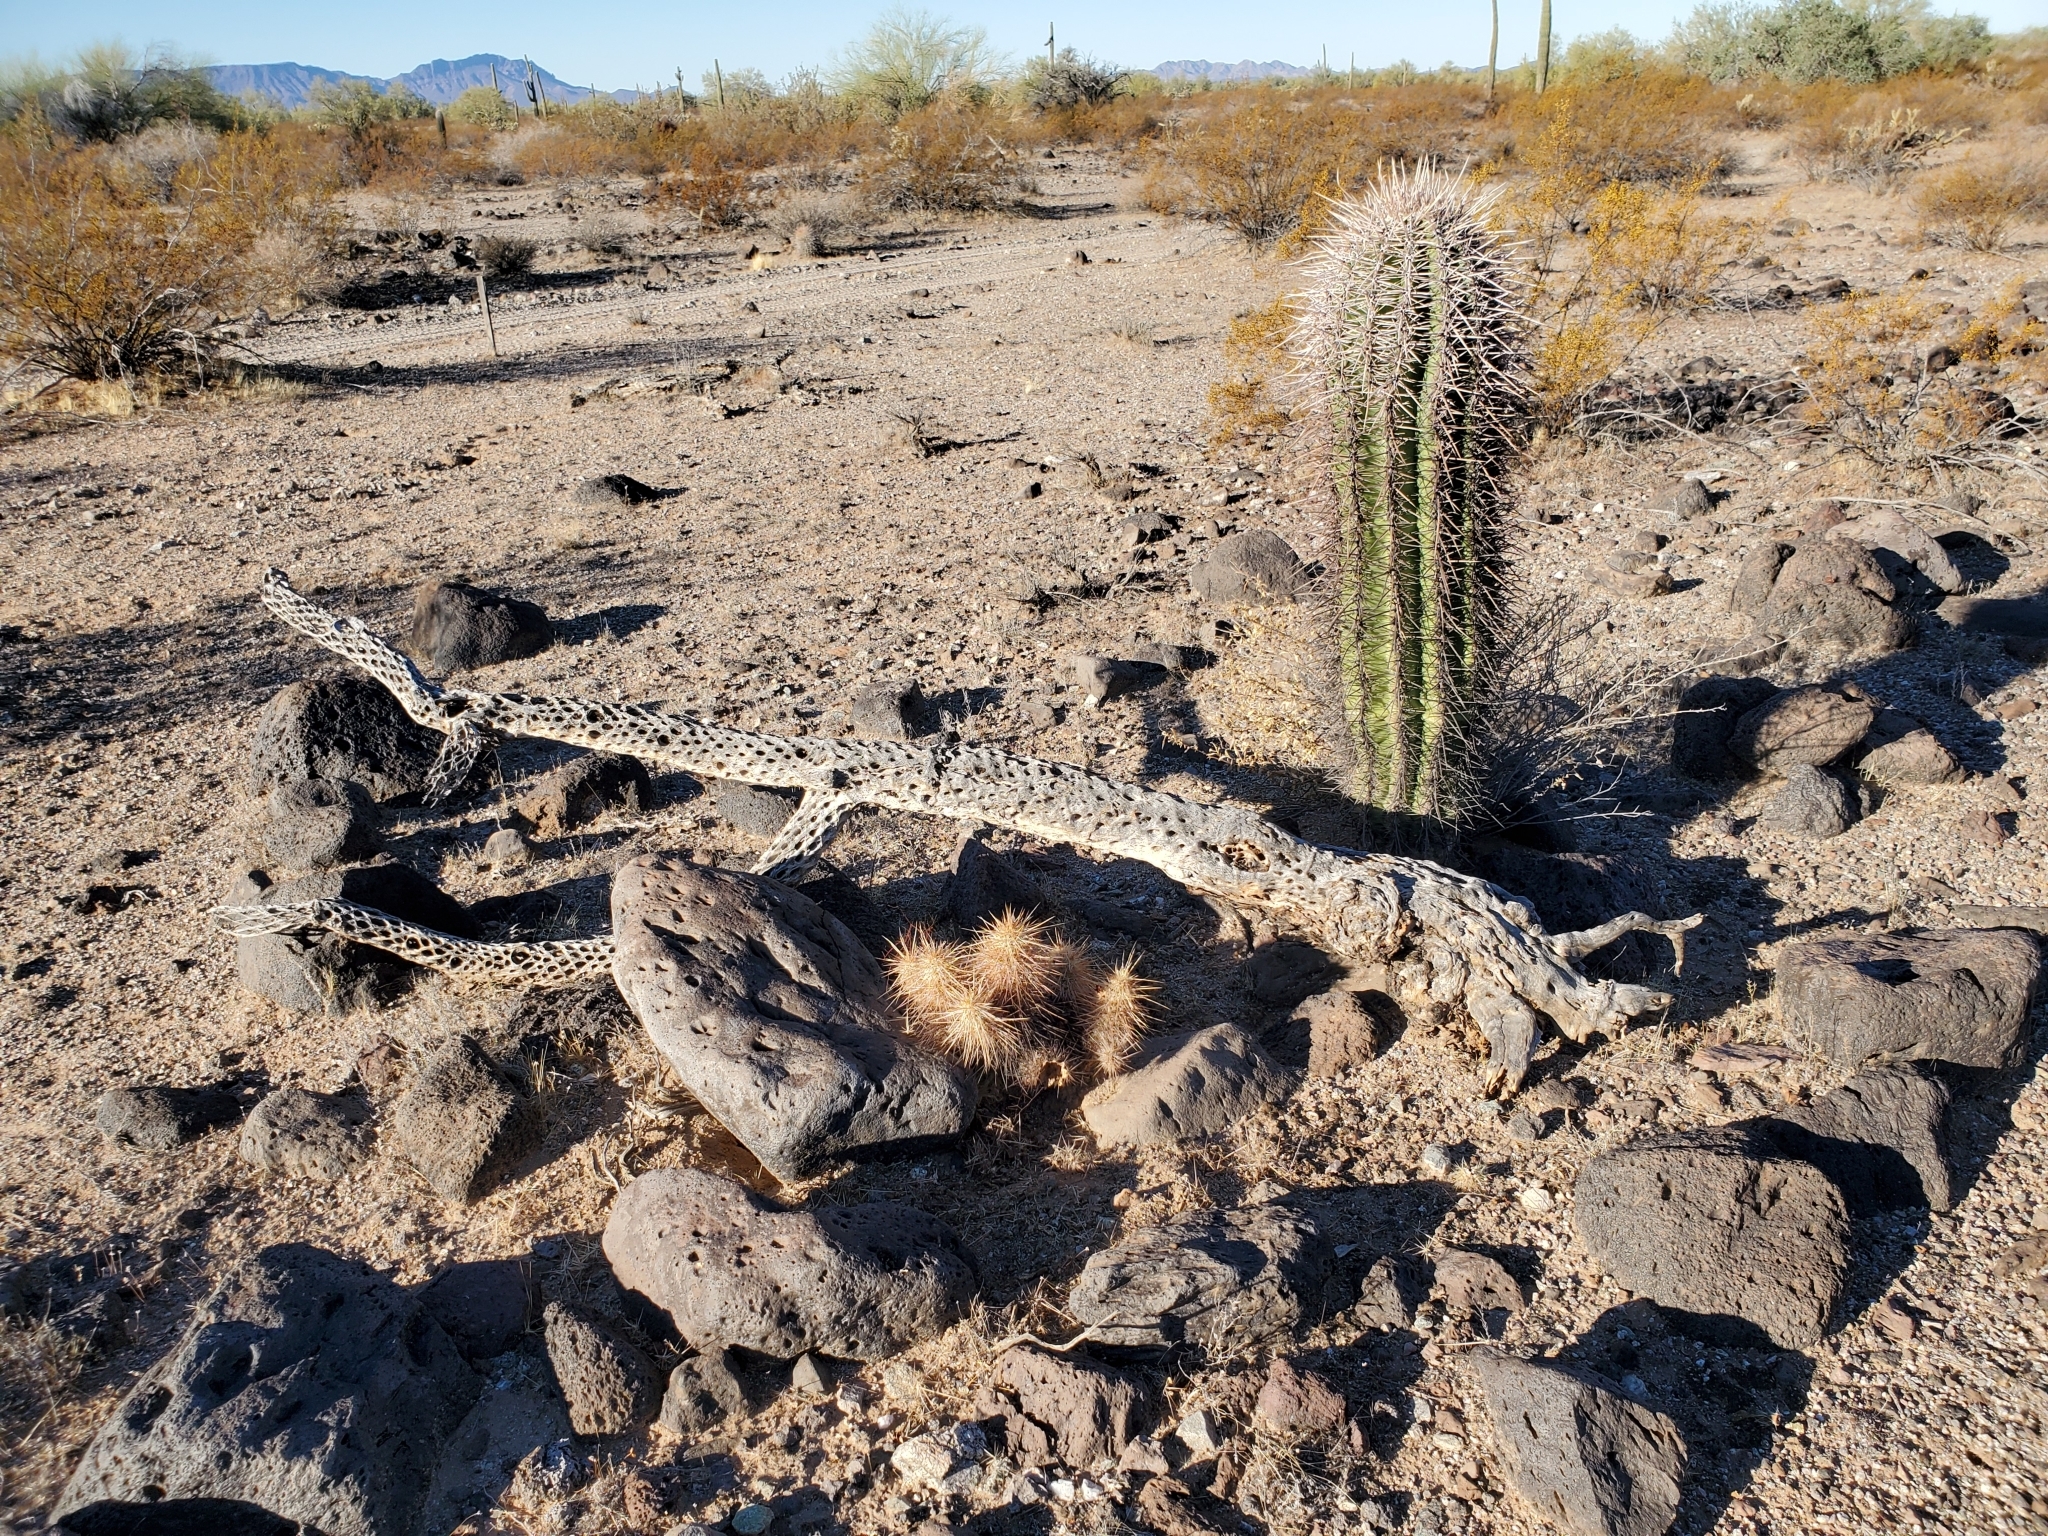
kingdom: Plantae
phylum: Tracheophyta
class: Magnoliopsida
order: Caryophyllales
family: Cactaceae
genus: Echinocereus
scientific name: Echinocereus engelmannii
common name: Engelmann's hedgehog cactus
